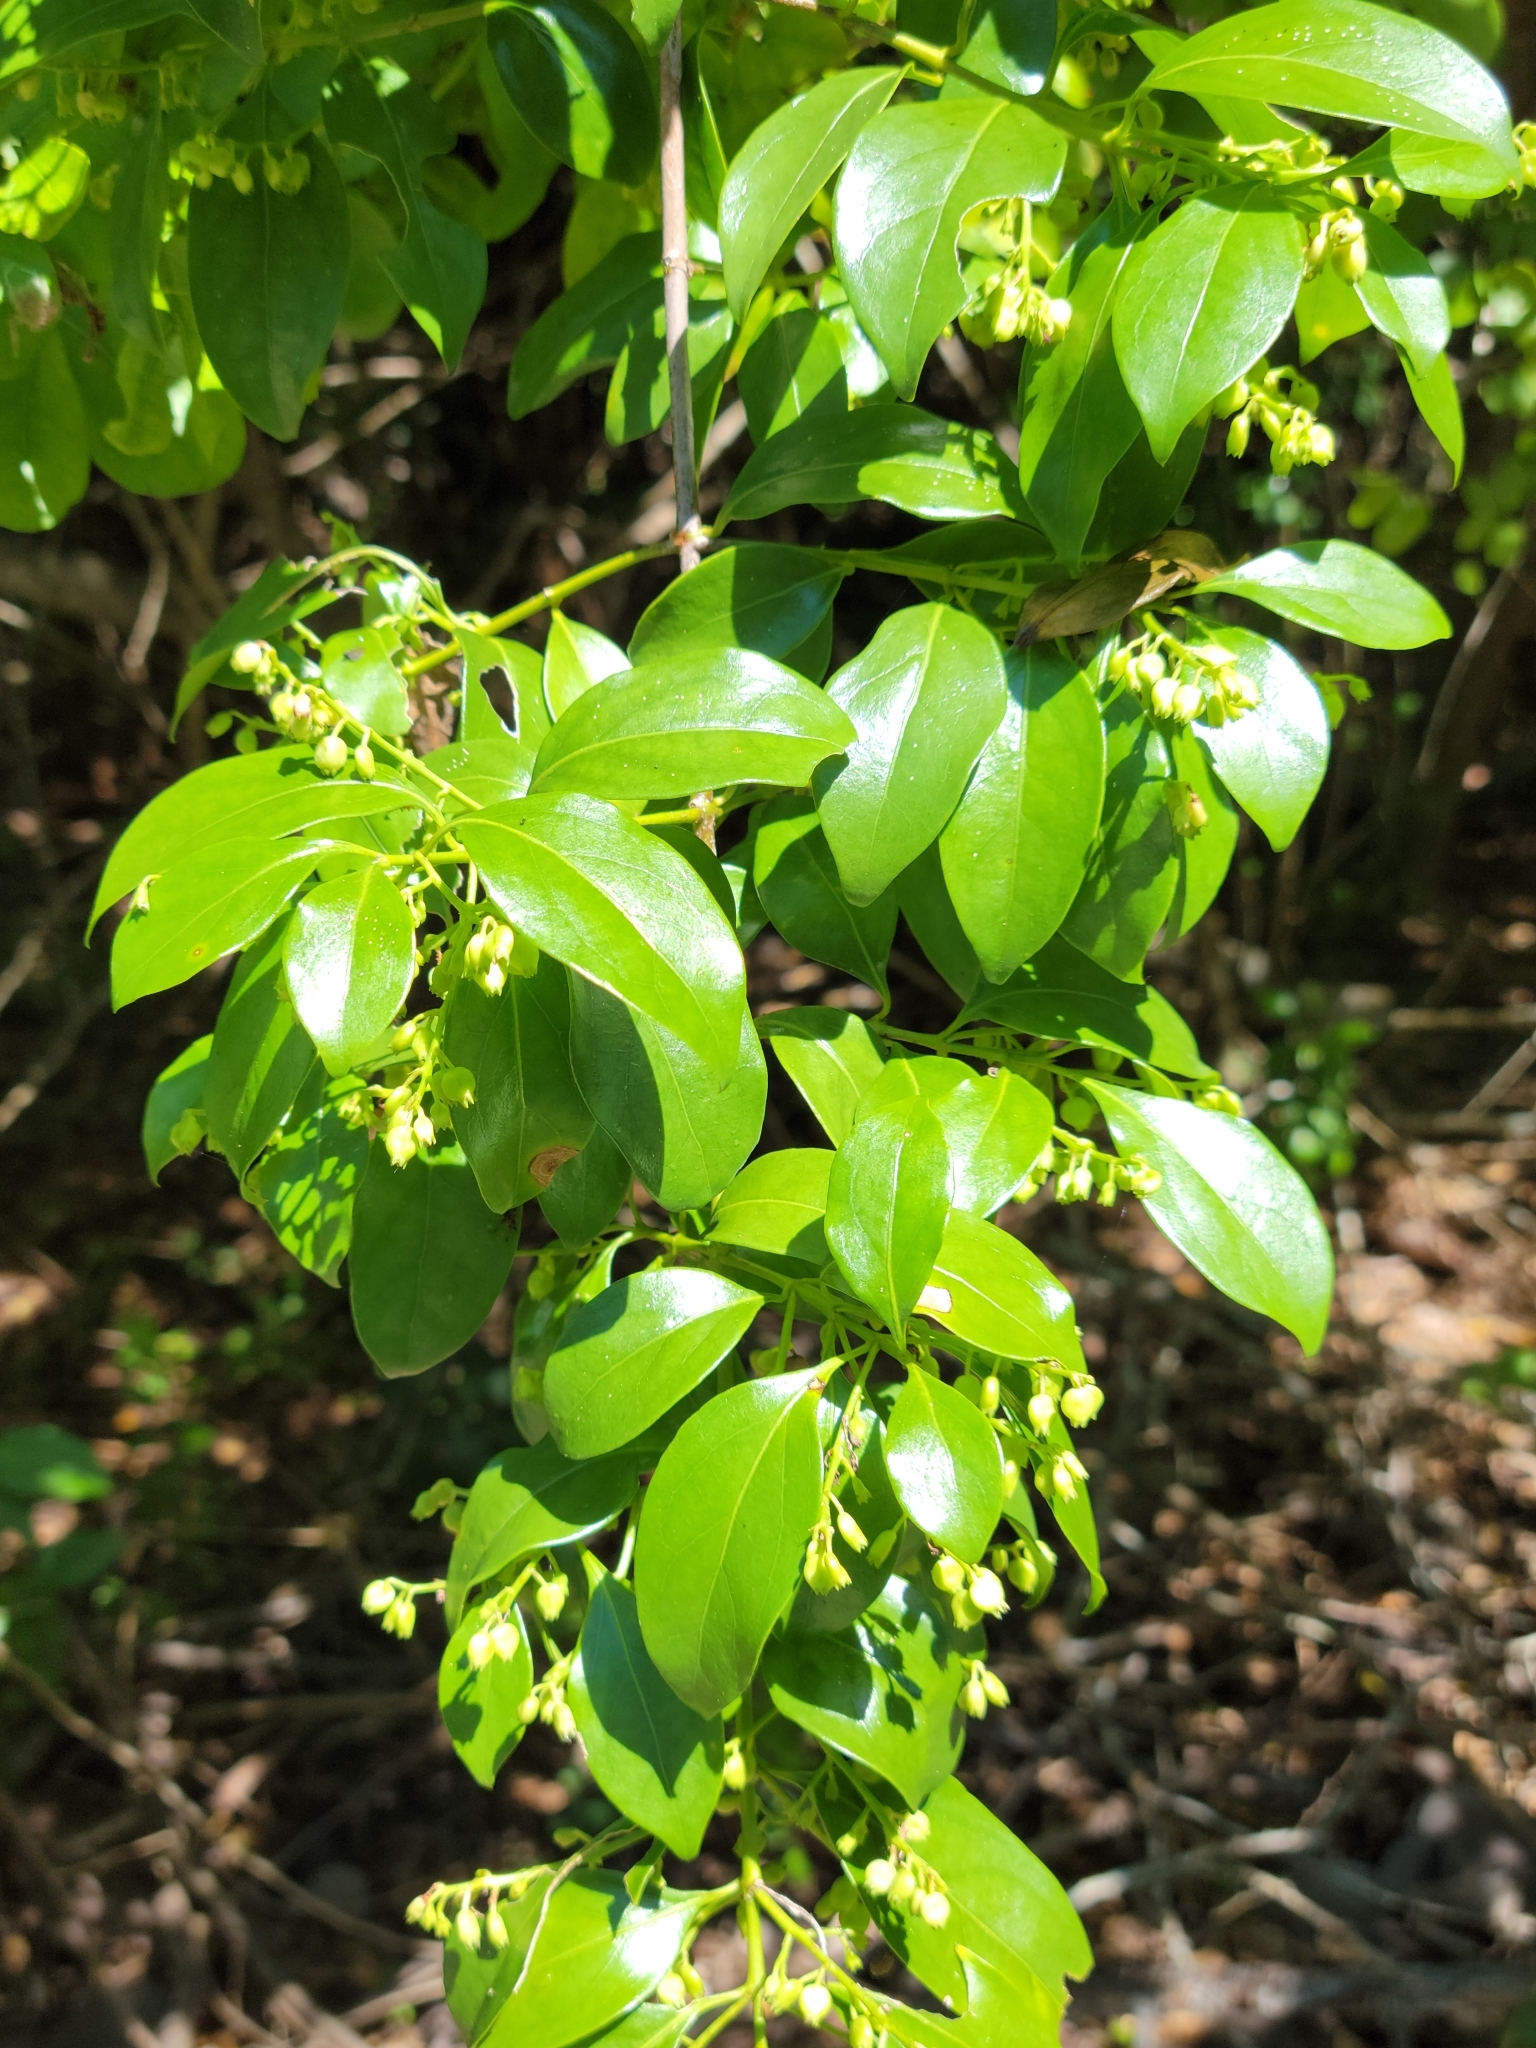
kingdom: Plantae
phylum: Tracheophyta
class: Magnoliopsida
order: Gentianales
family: Rubiaceae
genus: Chiococca
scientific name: Chiococca alba
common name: Snowberry
